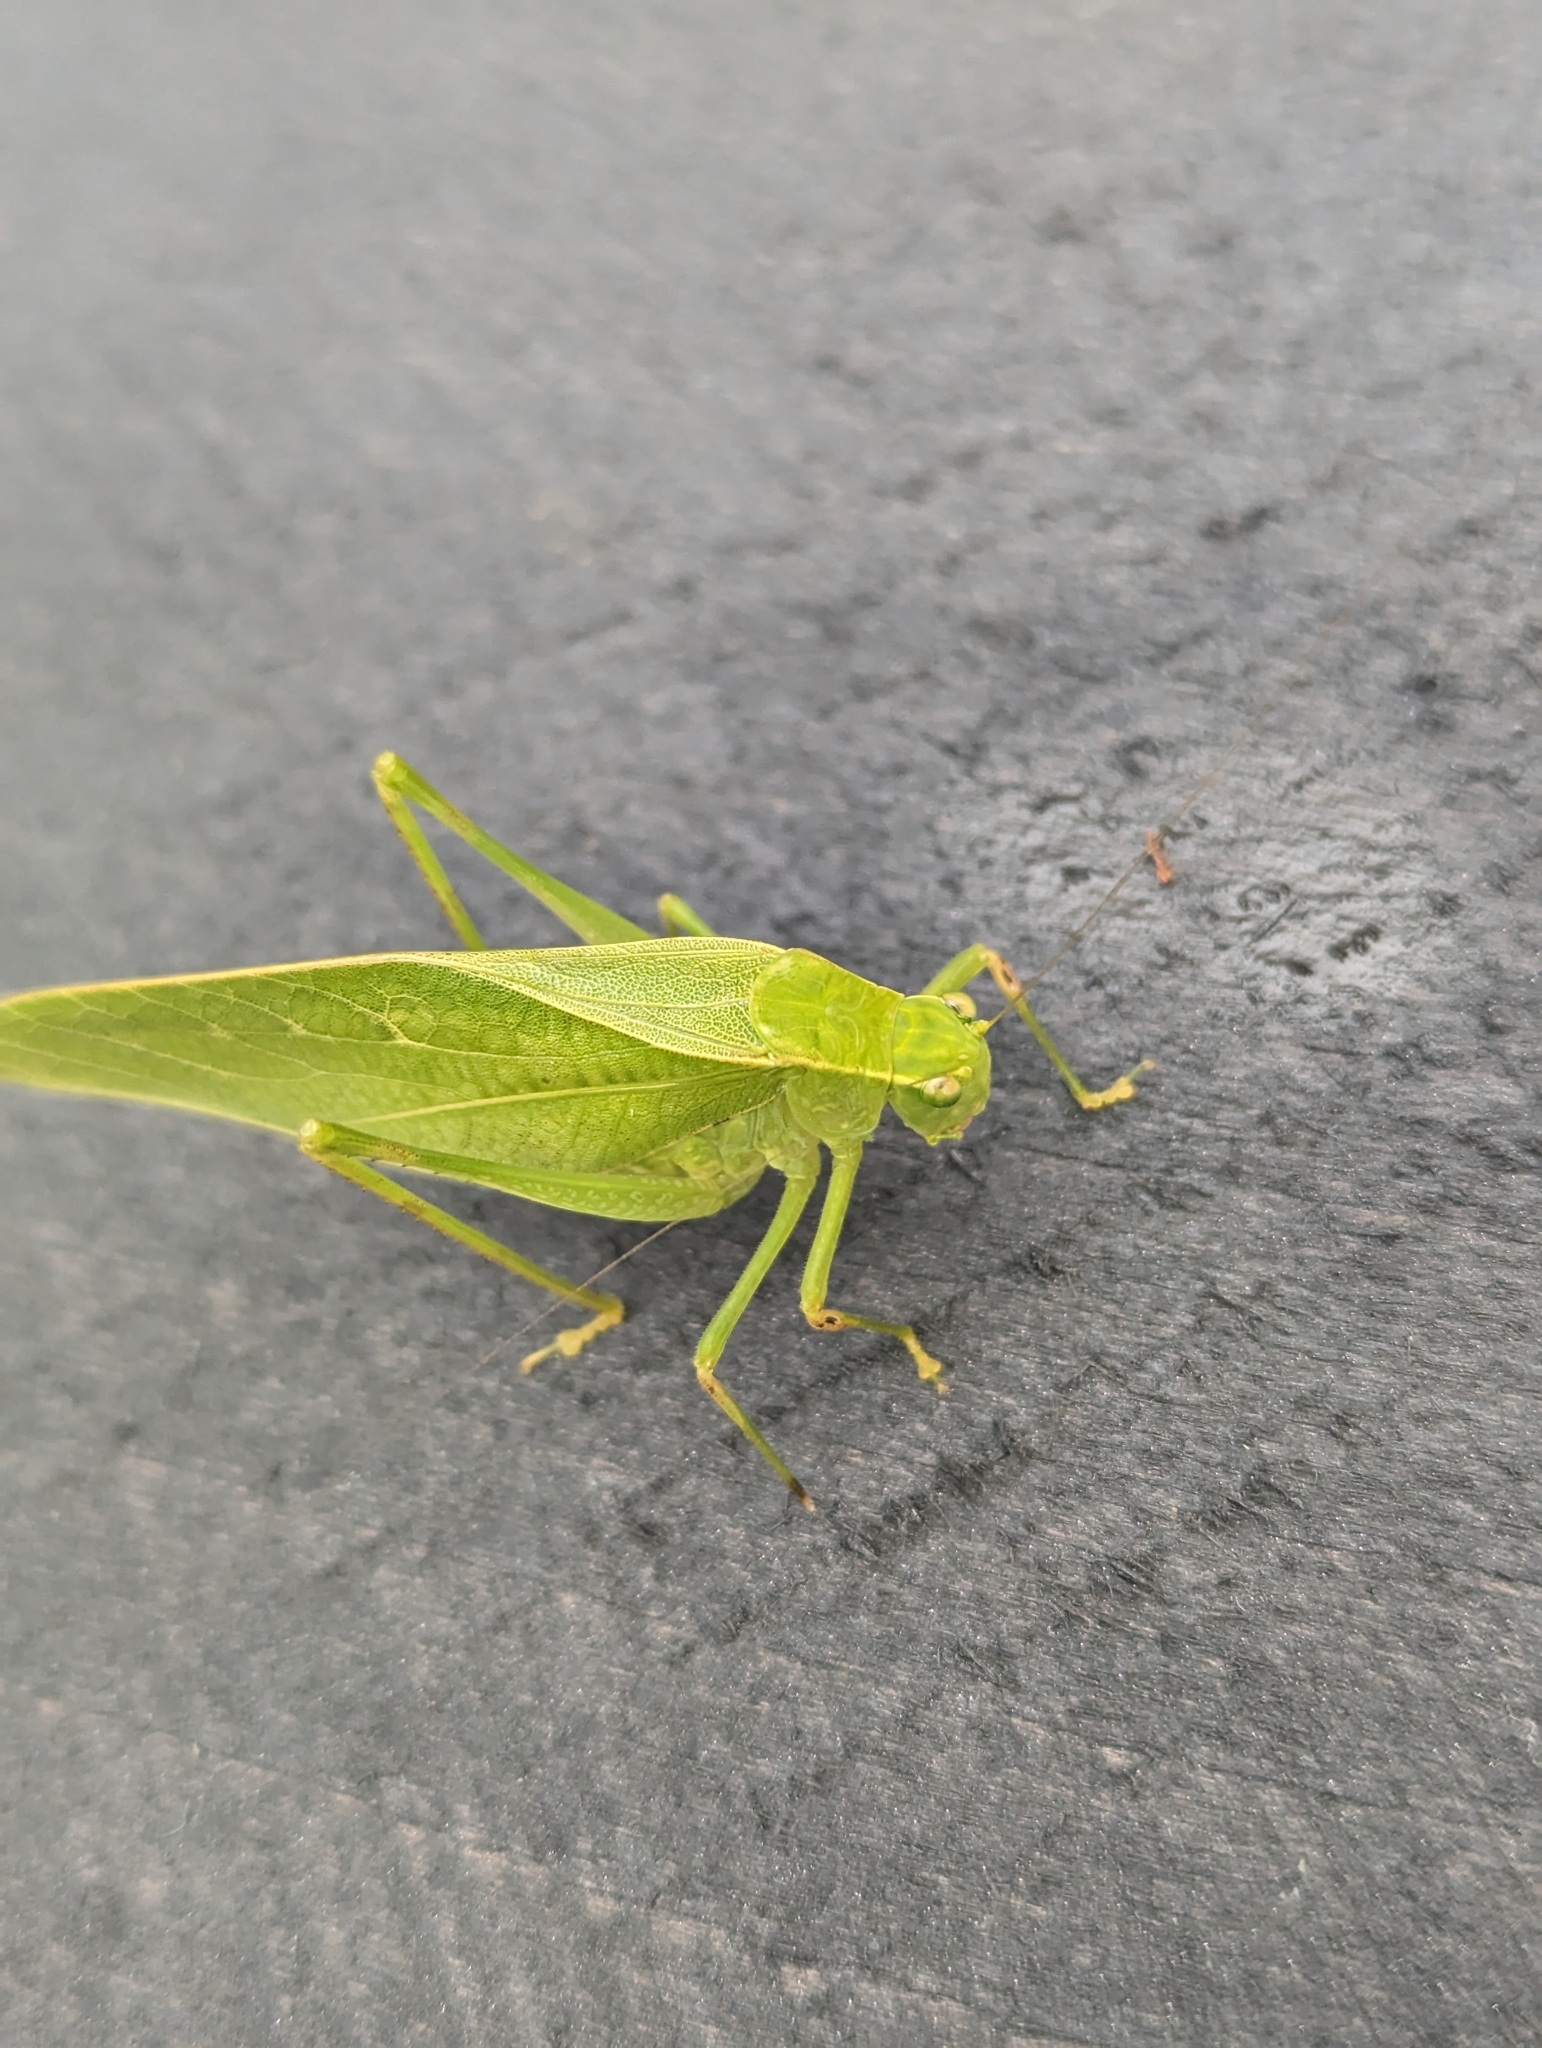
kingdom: Animalia
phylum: Arthropoda
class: Insecta
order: Orthoptera
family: Tettigoniidae
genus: Microcentrum
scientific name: Microcentrum retinerve
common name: Angular-winged katydid
